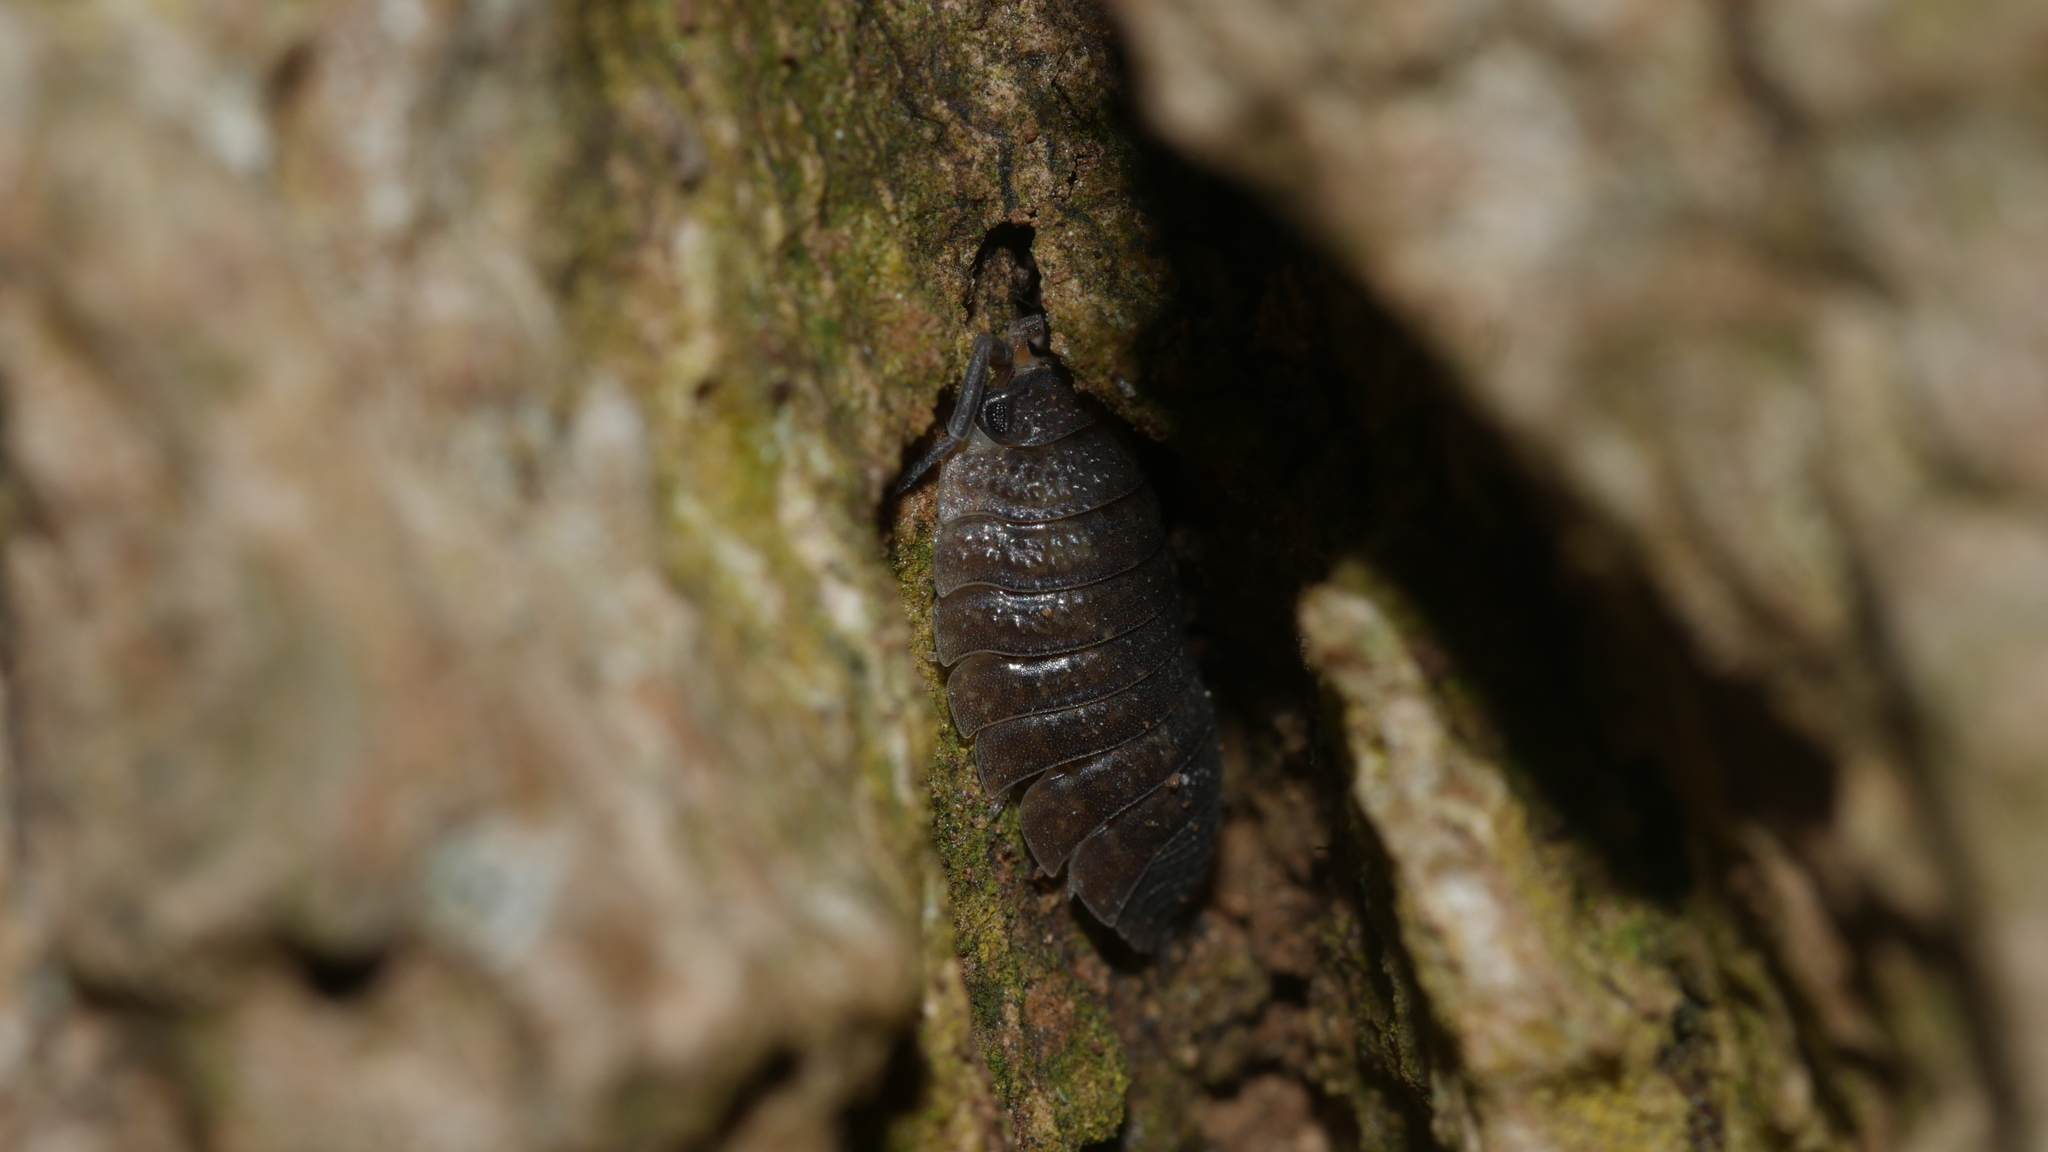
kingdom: Animalia
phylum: Arthropoda
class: Malacostraca
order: Isopoda
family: Porcellionidae
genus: Porcellio
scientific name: Porcellio scaber
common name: Common rough woodlouse
